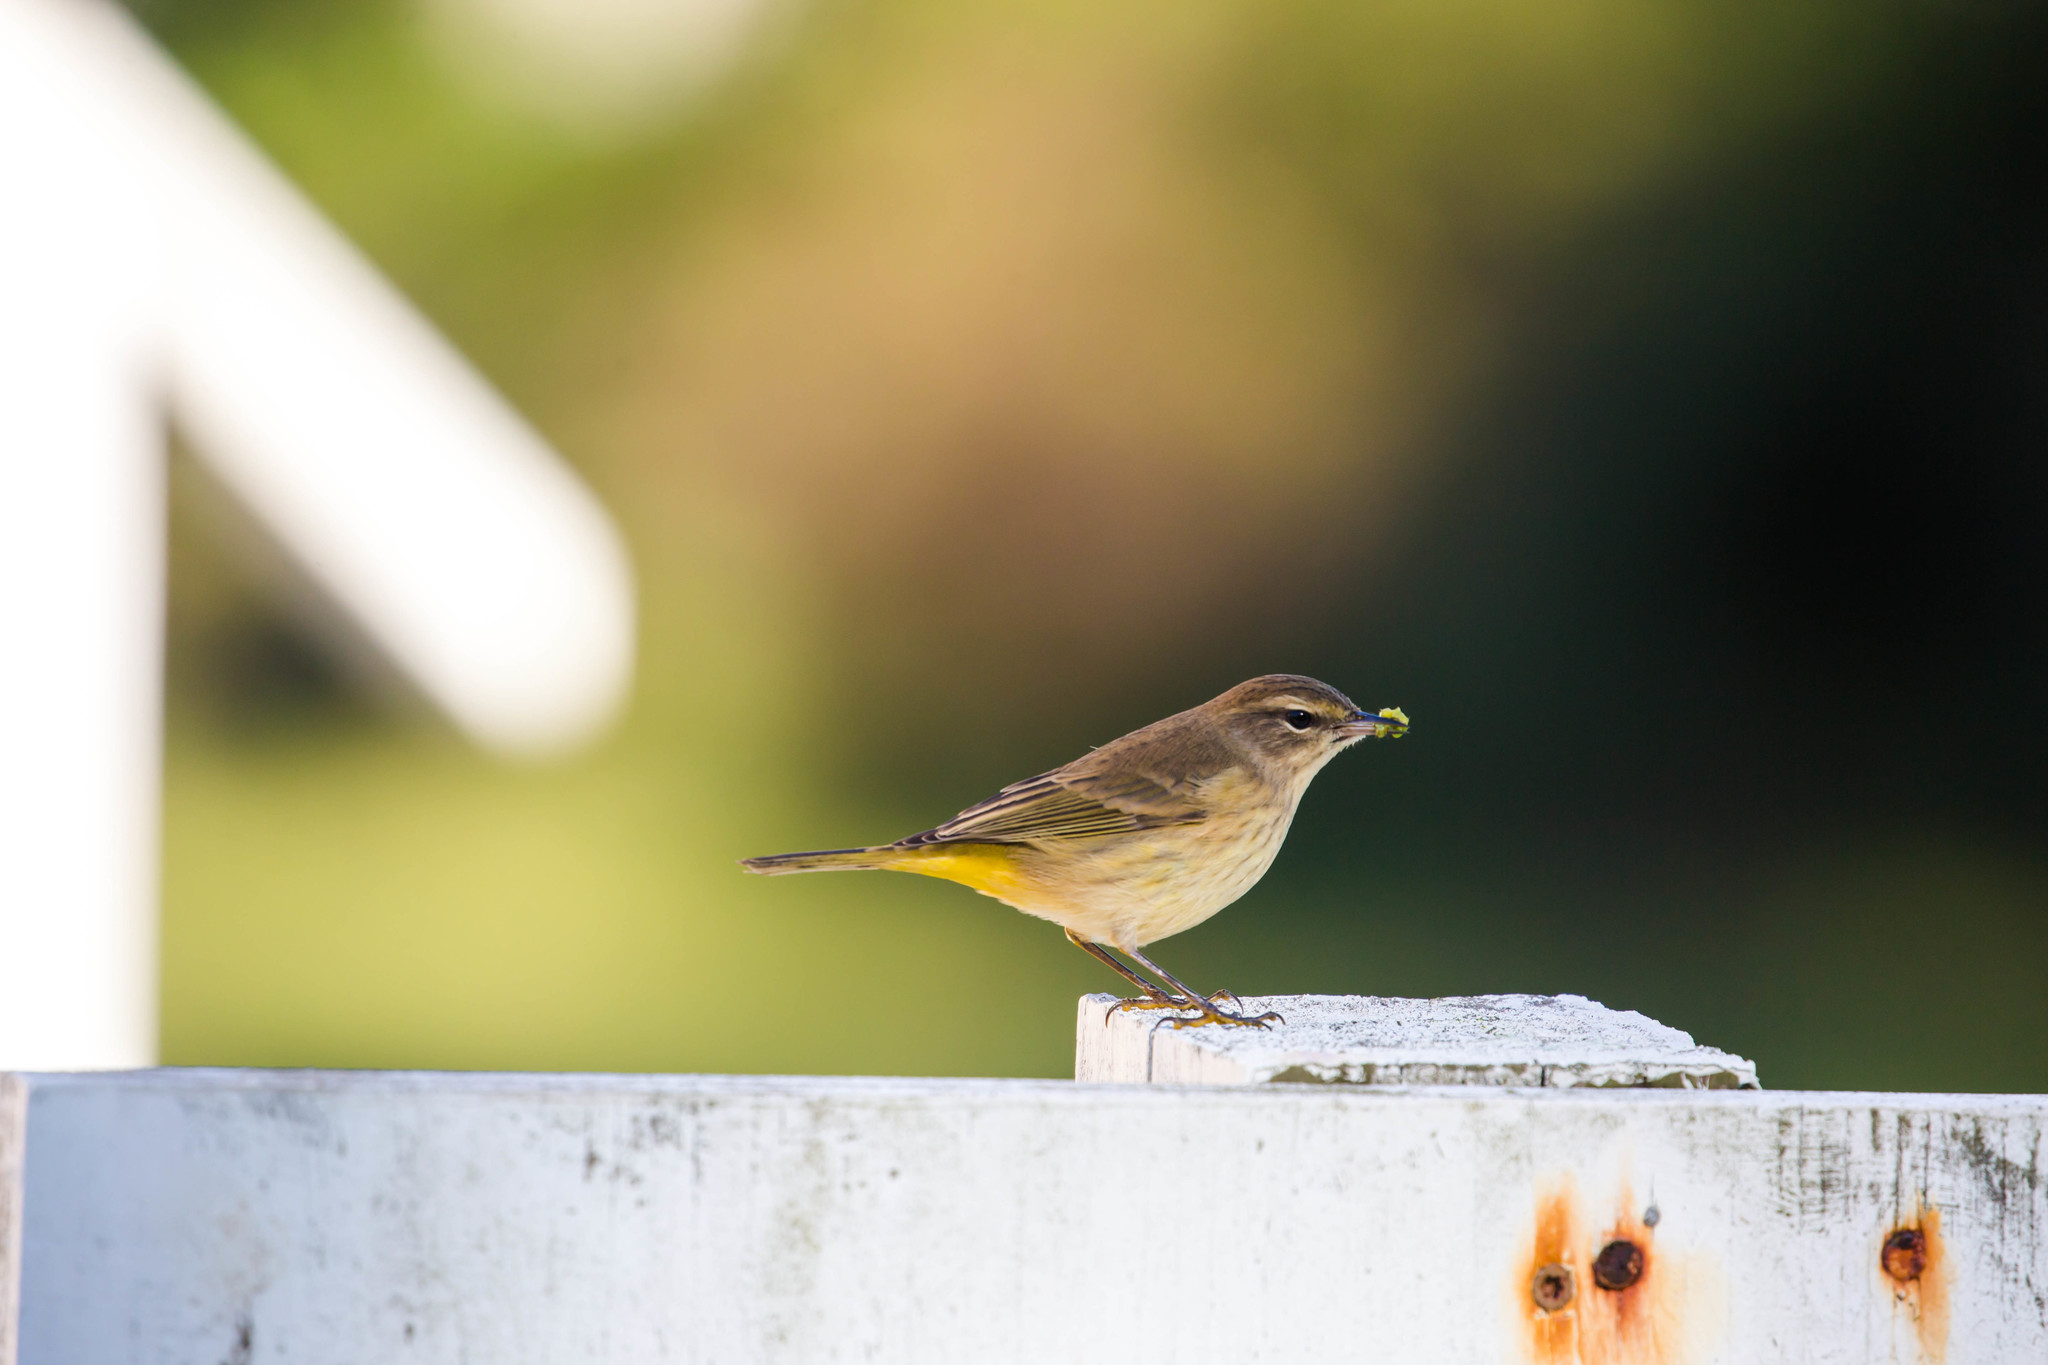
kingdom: Animalia
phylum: Chordata
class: Aves
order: Passeriformes
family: Parulidae
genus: Setophaga
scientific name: Setophaga palmarum
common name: Palm warbler
